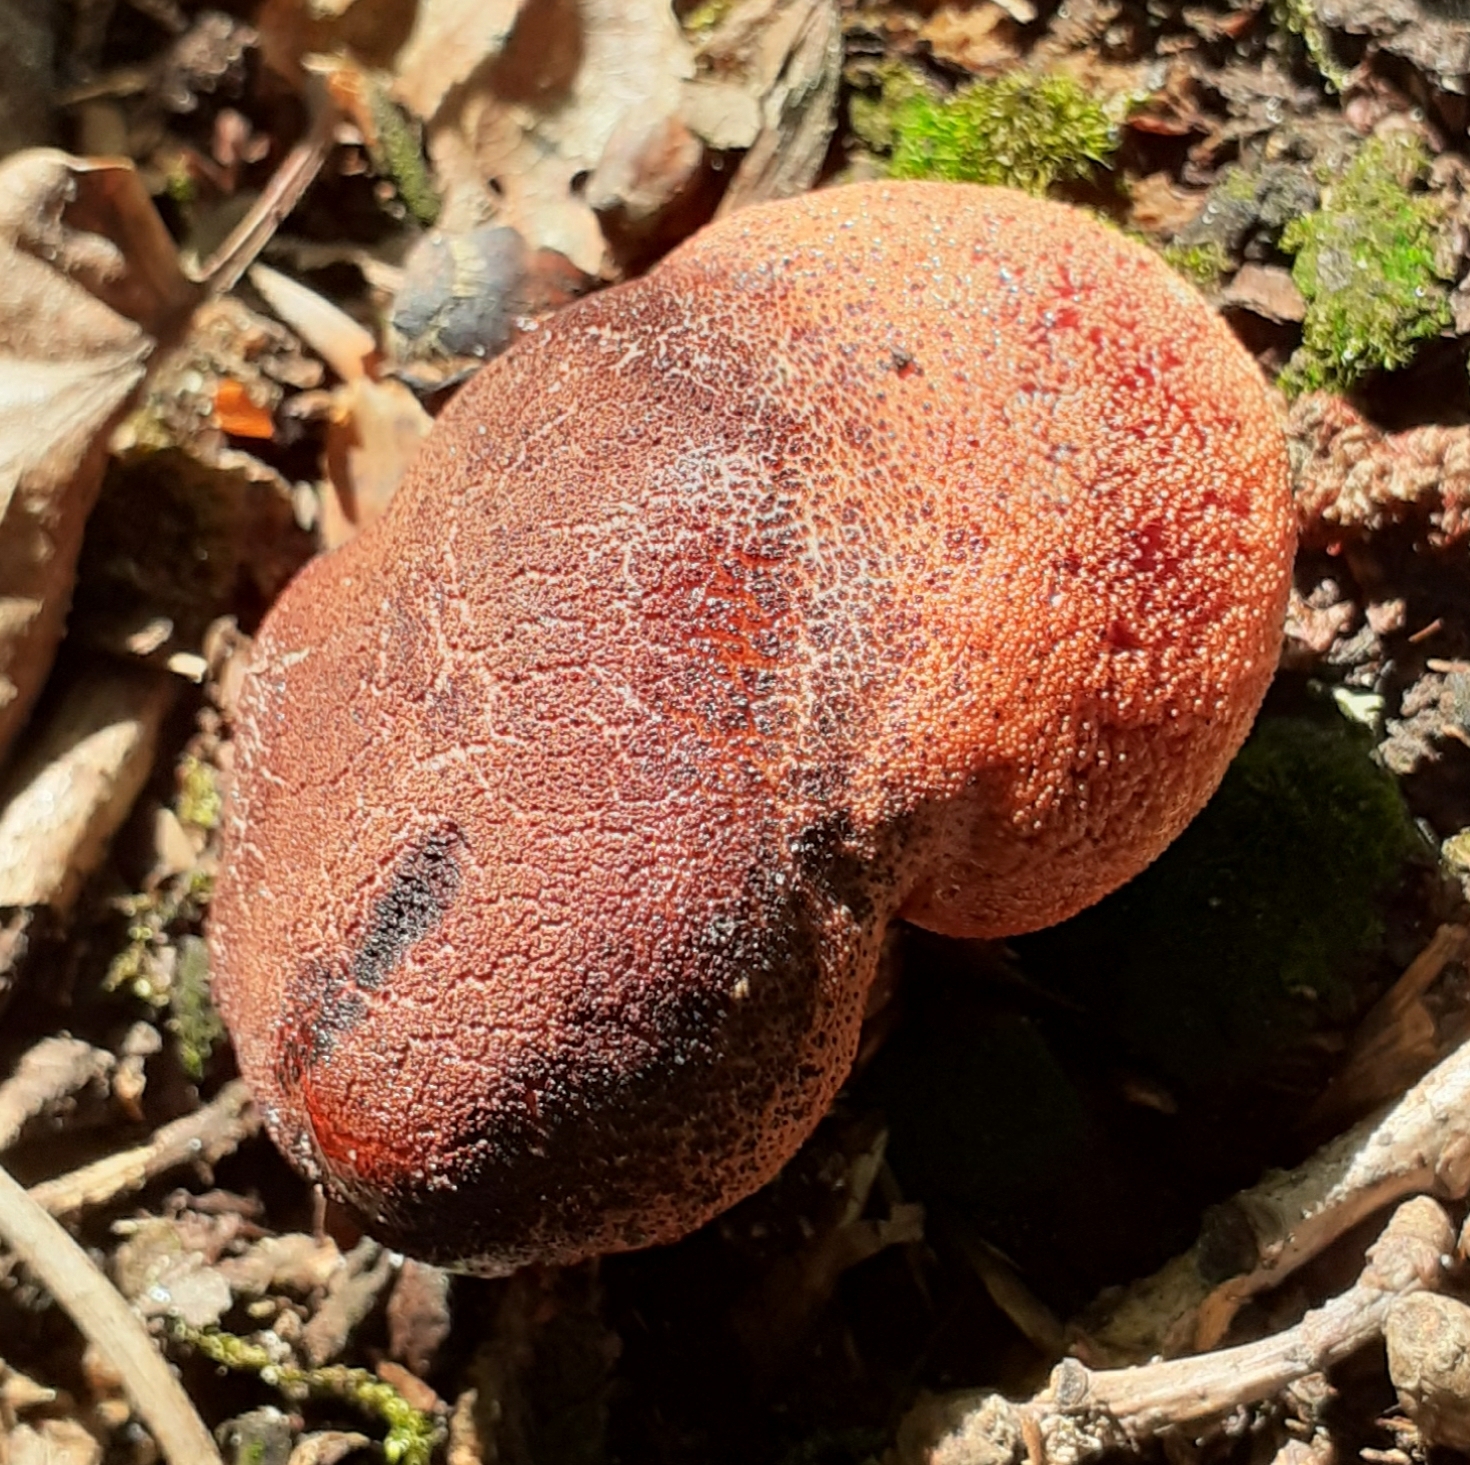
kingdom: Fungi
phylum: Basidiomycota
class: Agaricomycetes
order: Agaricales
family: Fistulinaceae
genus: Fistulina
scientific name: Fistulina hepatica
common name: Beef-steak fungus
